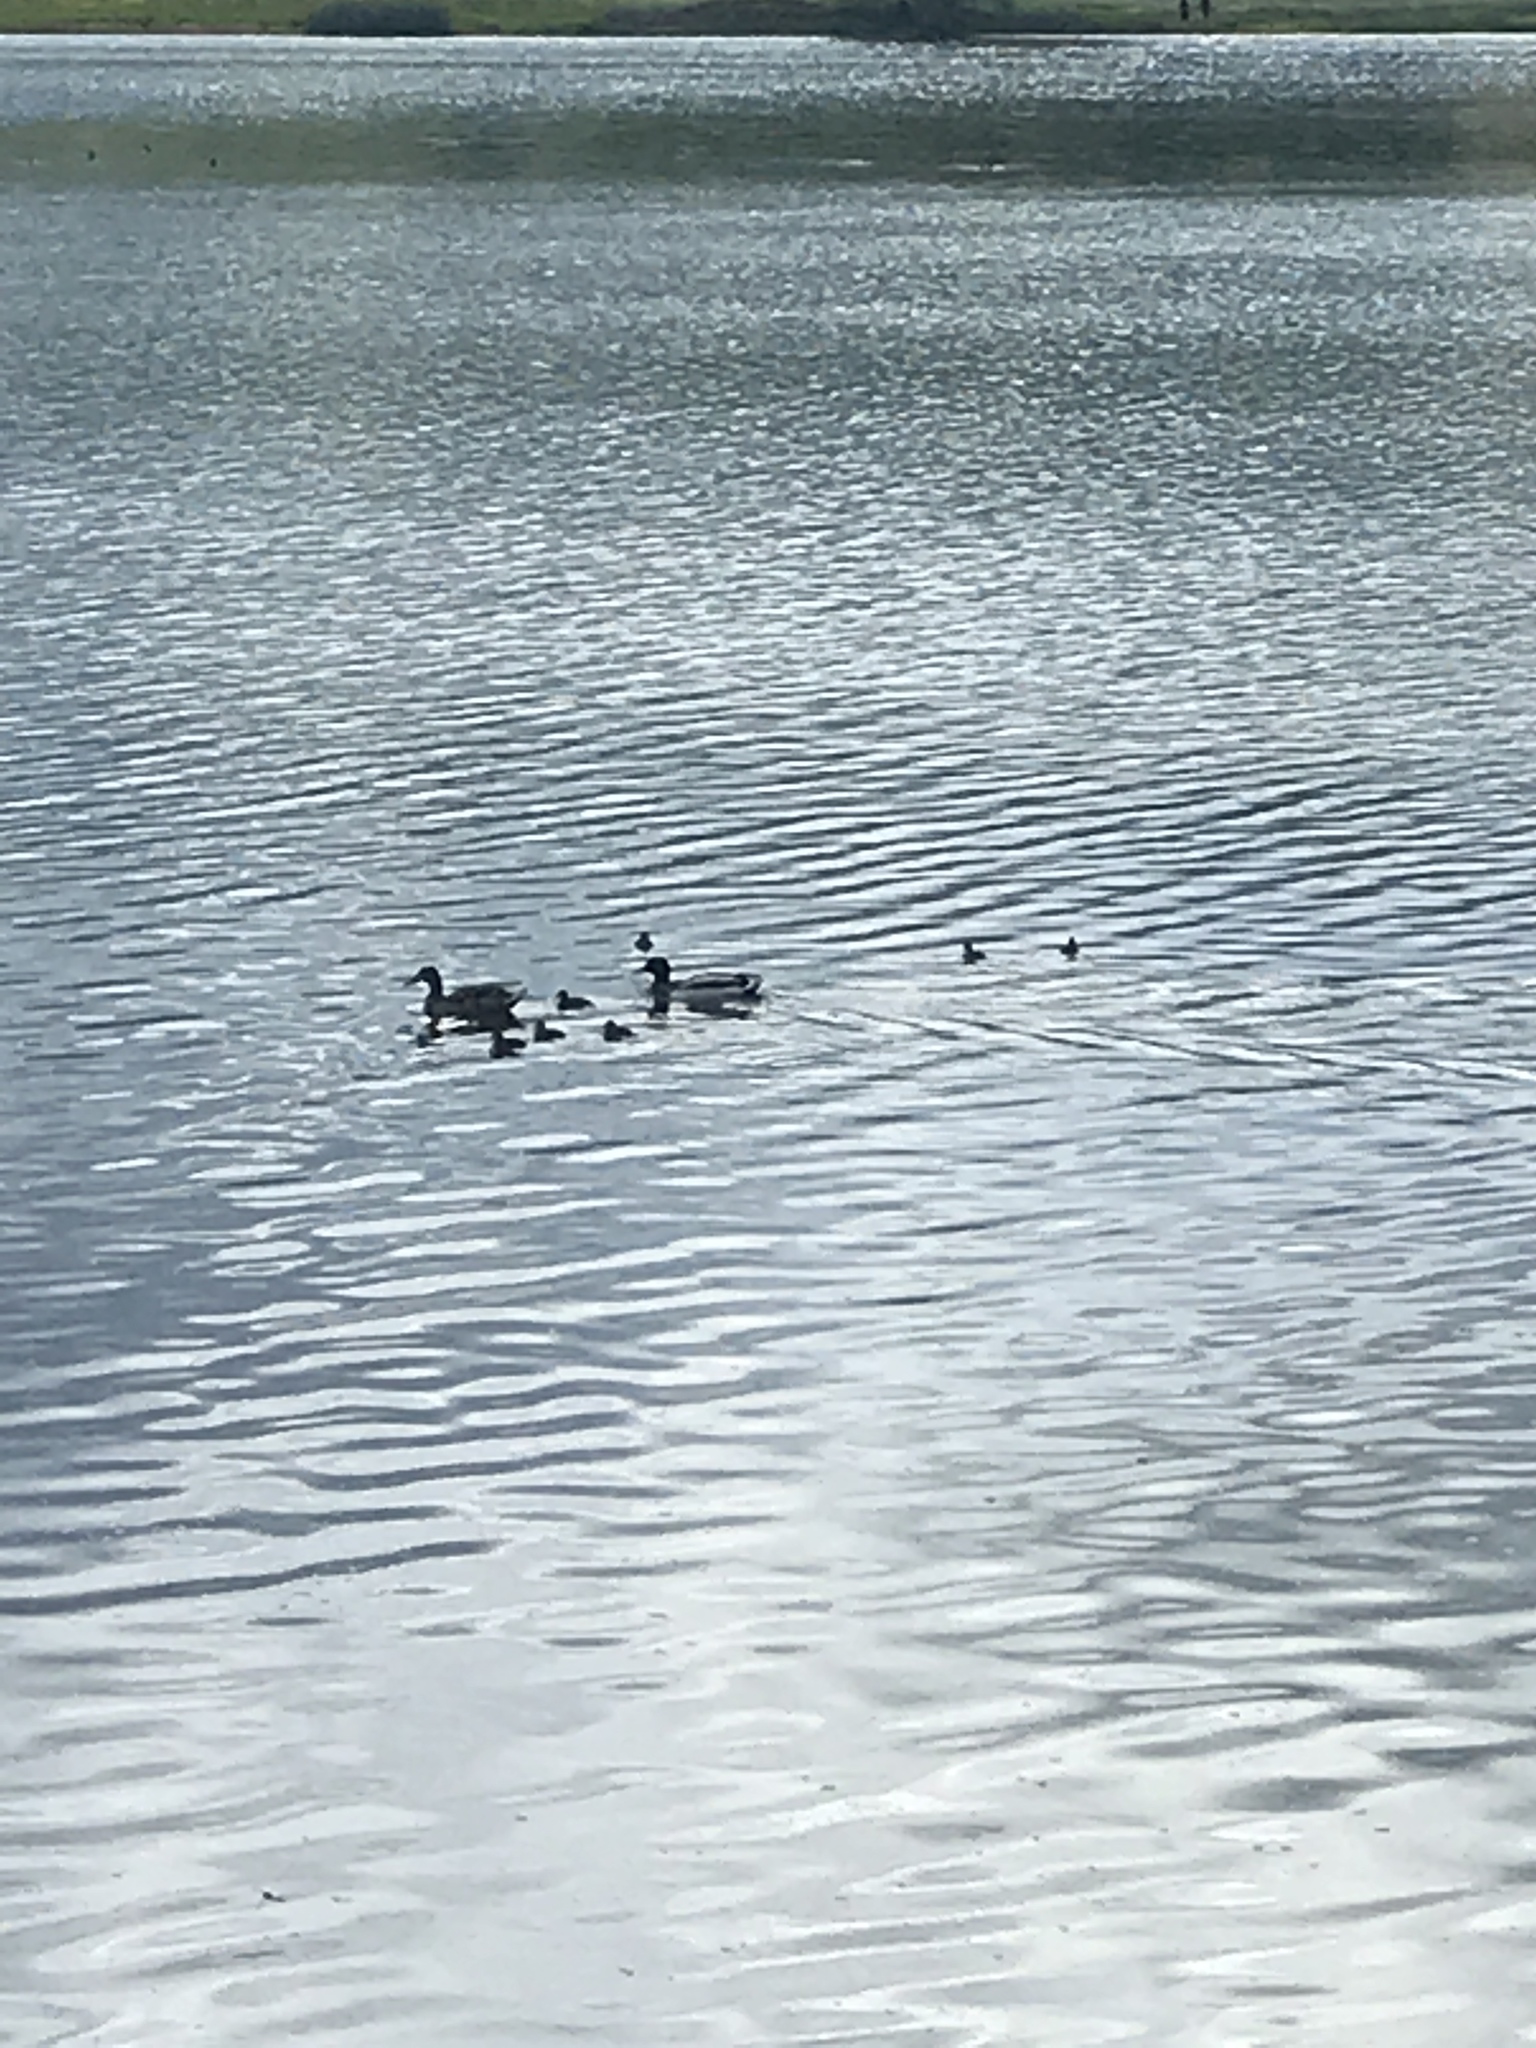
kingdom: Animalia
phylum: Chordata
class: Aves
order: Anseriformes
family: Anatidae
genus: Anas
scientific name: Anas platyrhynchos
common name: Mallard
